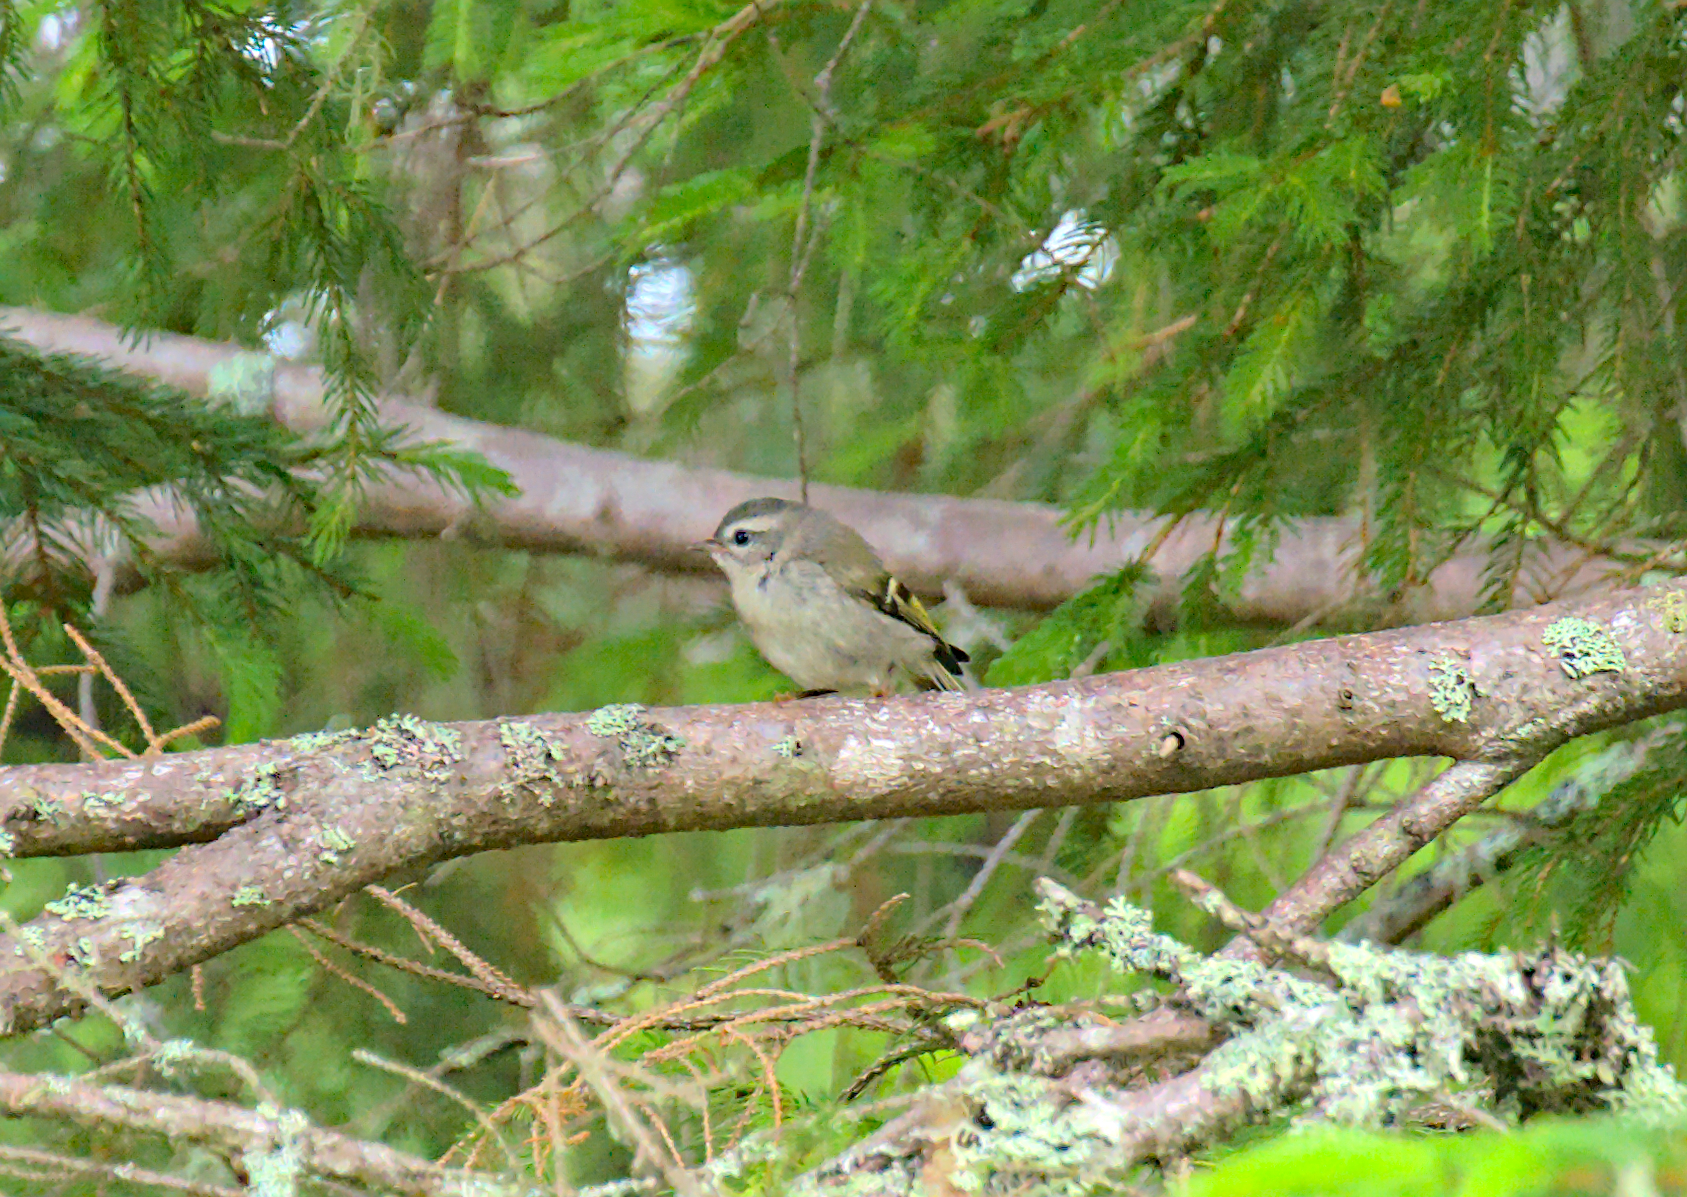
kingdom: Animalia
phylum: Chordata
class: Aves
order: Passeriformes
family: Regulidae
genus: Regulus
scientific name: Regulus satrapa
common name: Golden-crowned kinglet
